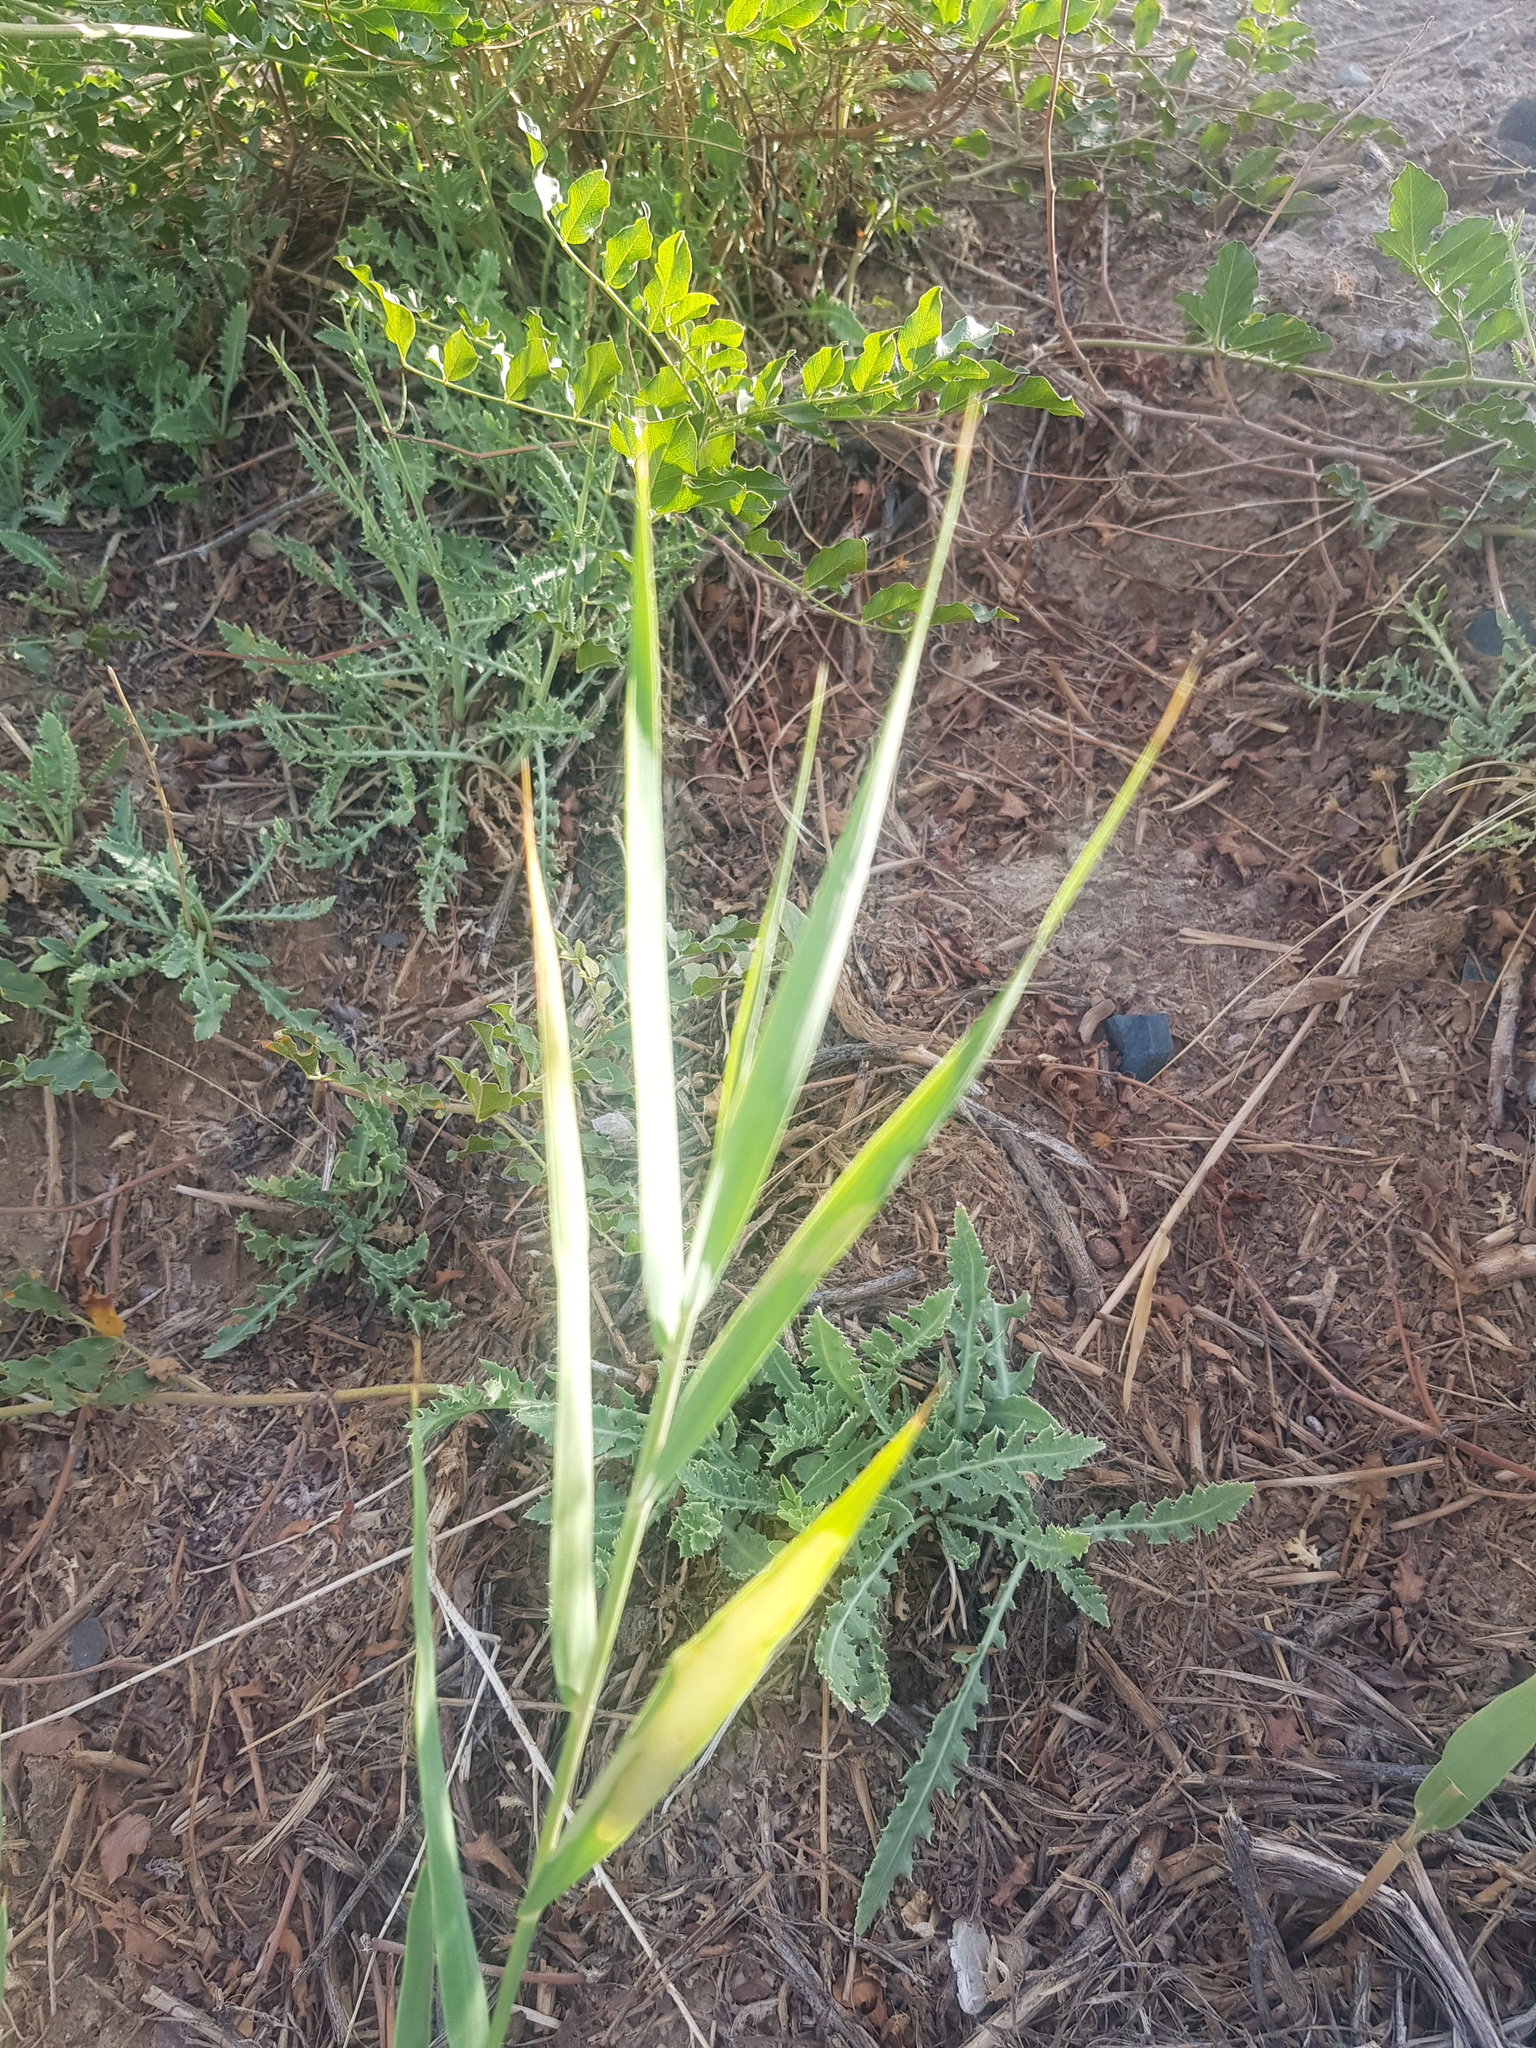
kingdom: Plantae
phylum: Tracheophyta
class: Liliopsida
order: Poales
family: Poaceae
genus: Phragmites
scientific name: Phragmites australis
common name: Common reed
